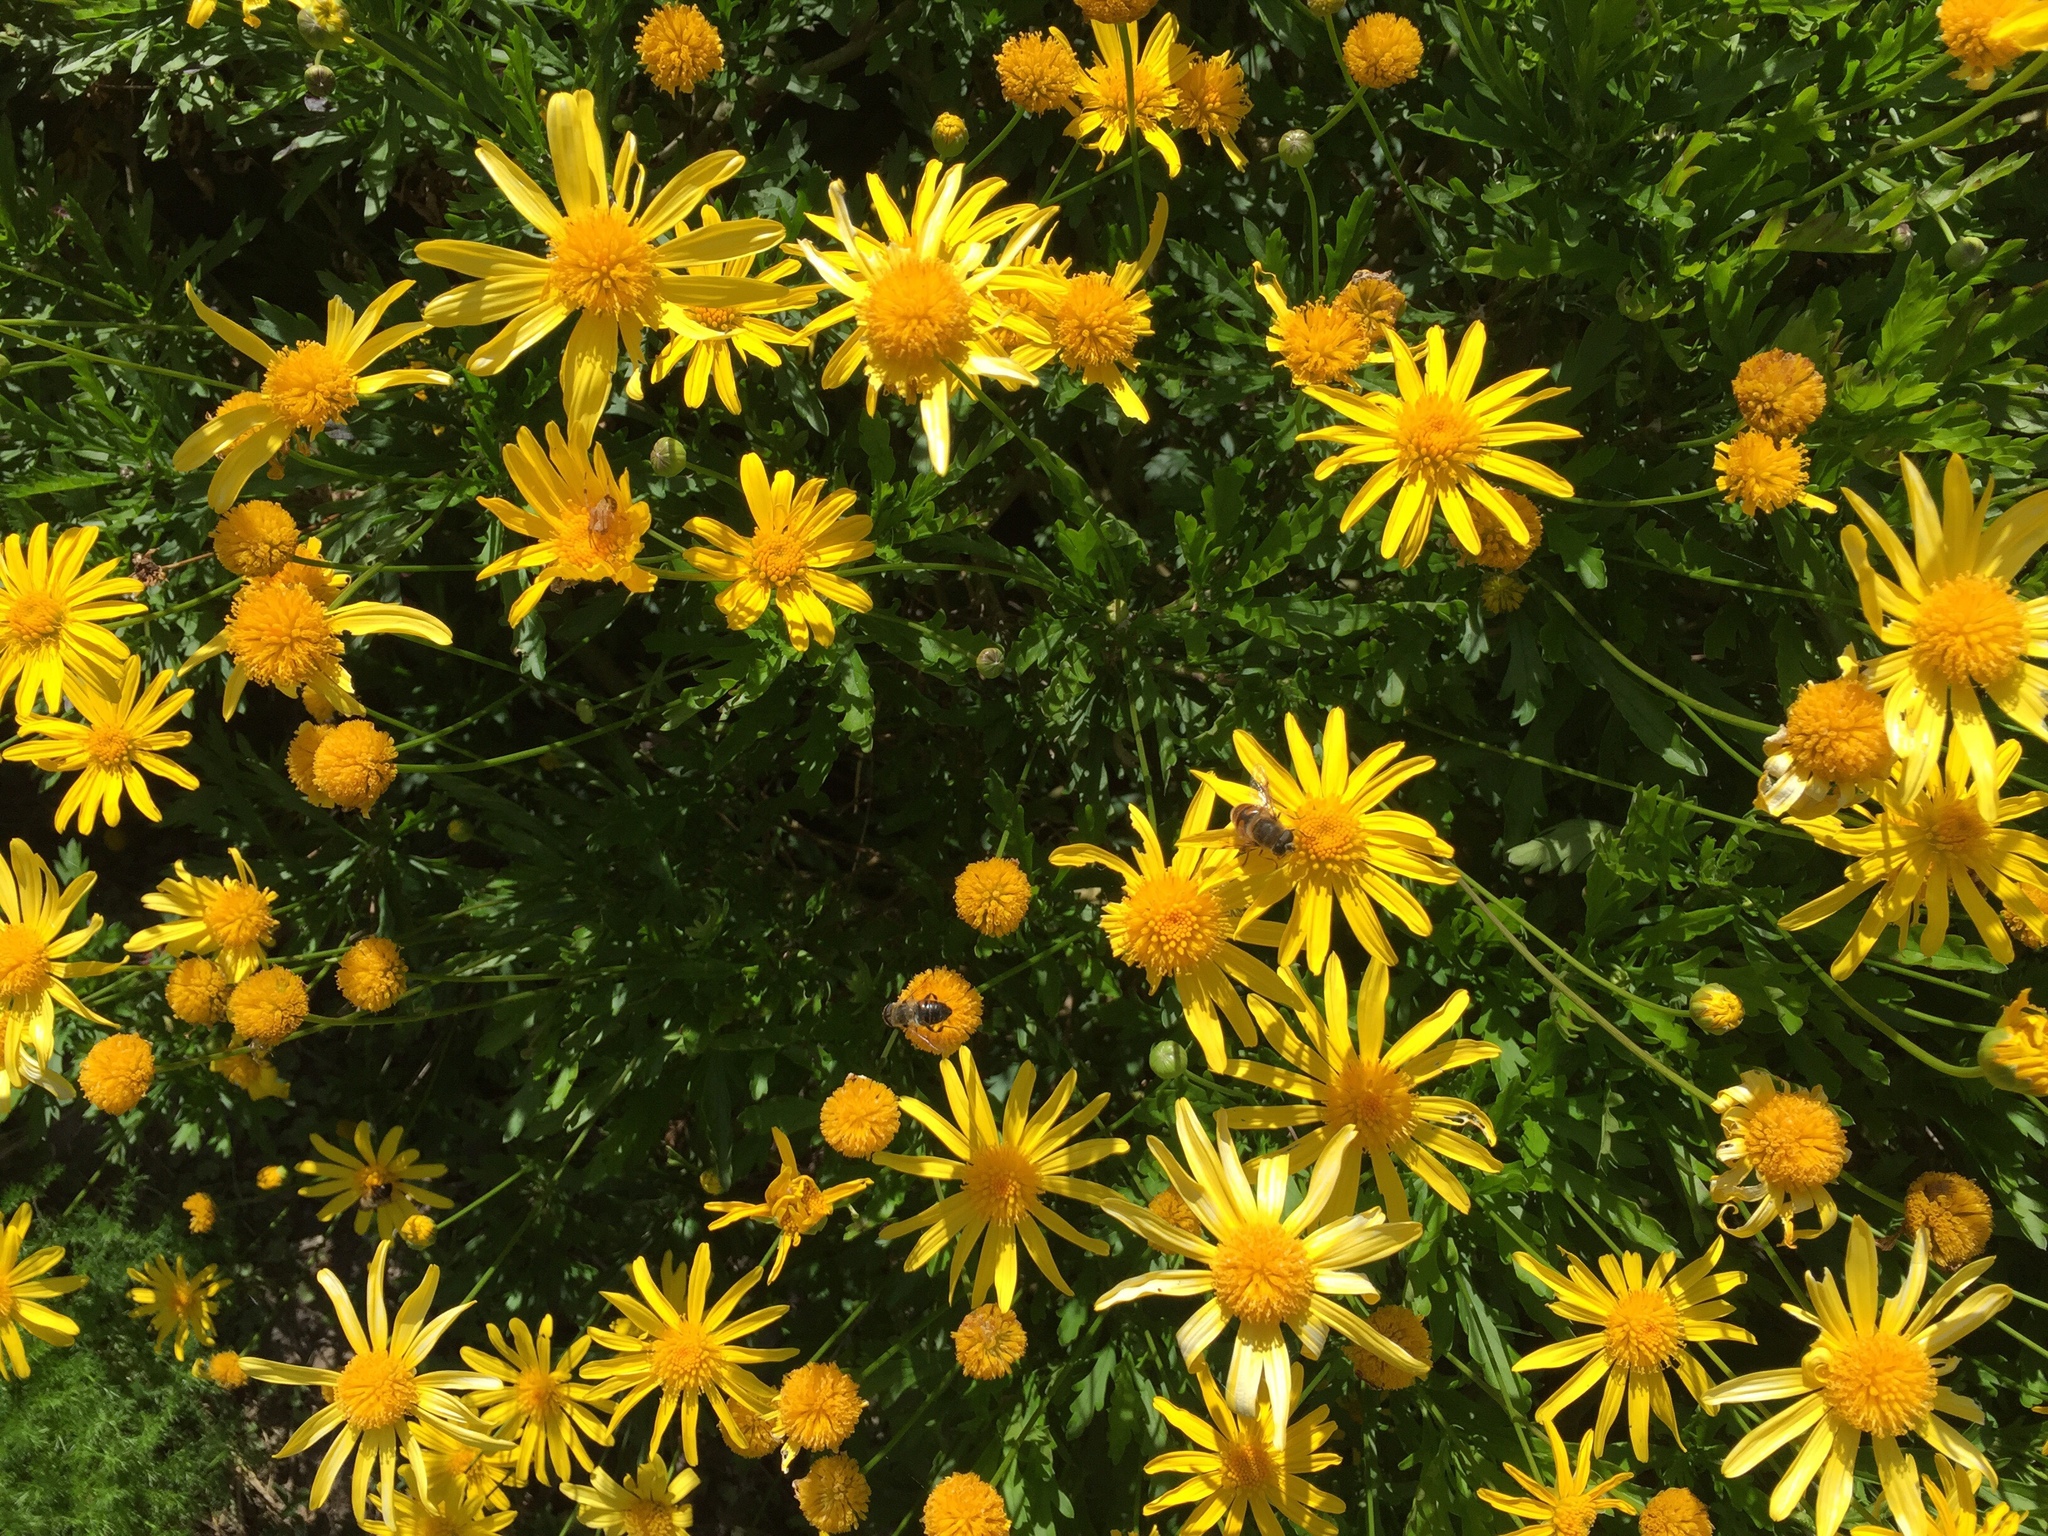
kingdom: Animalia
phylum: Arthropoda
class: Insecta
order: Diptera
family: Syrphidae
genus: Eristalis
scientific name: Eristalis tenax
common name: Drone fly
